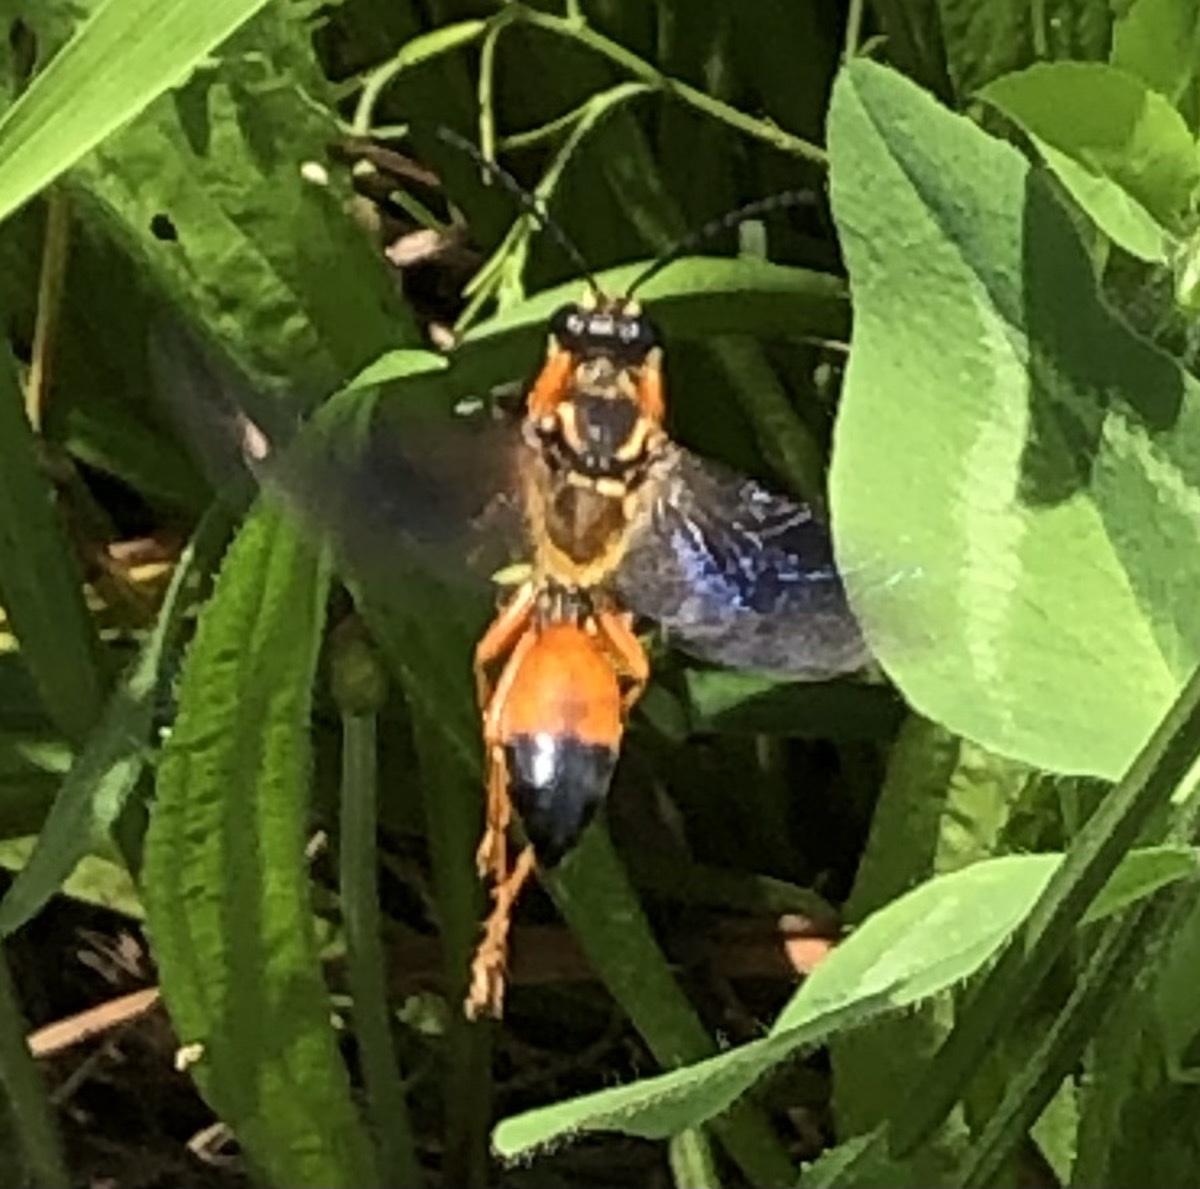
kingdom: Animalia
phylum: Arthropoda
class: Insecta
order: Hymenoptera
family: Sphecidae
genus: Sphex
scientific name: Sphex ichneumoneus
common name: Great golden digger wasp
